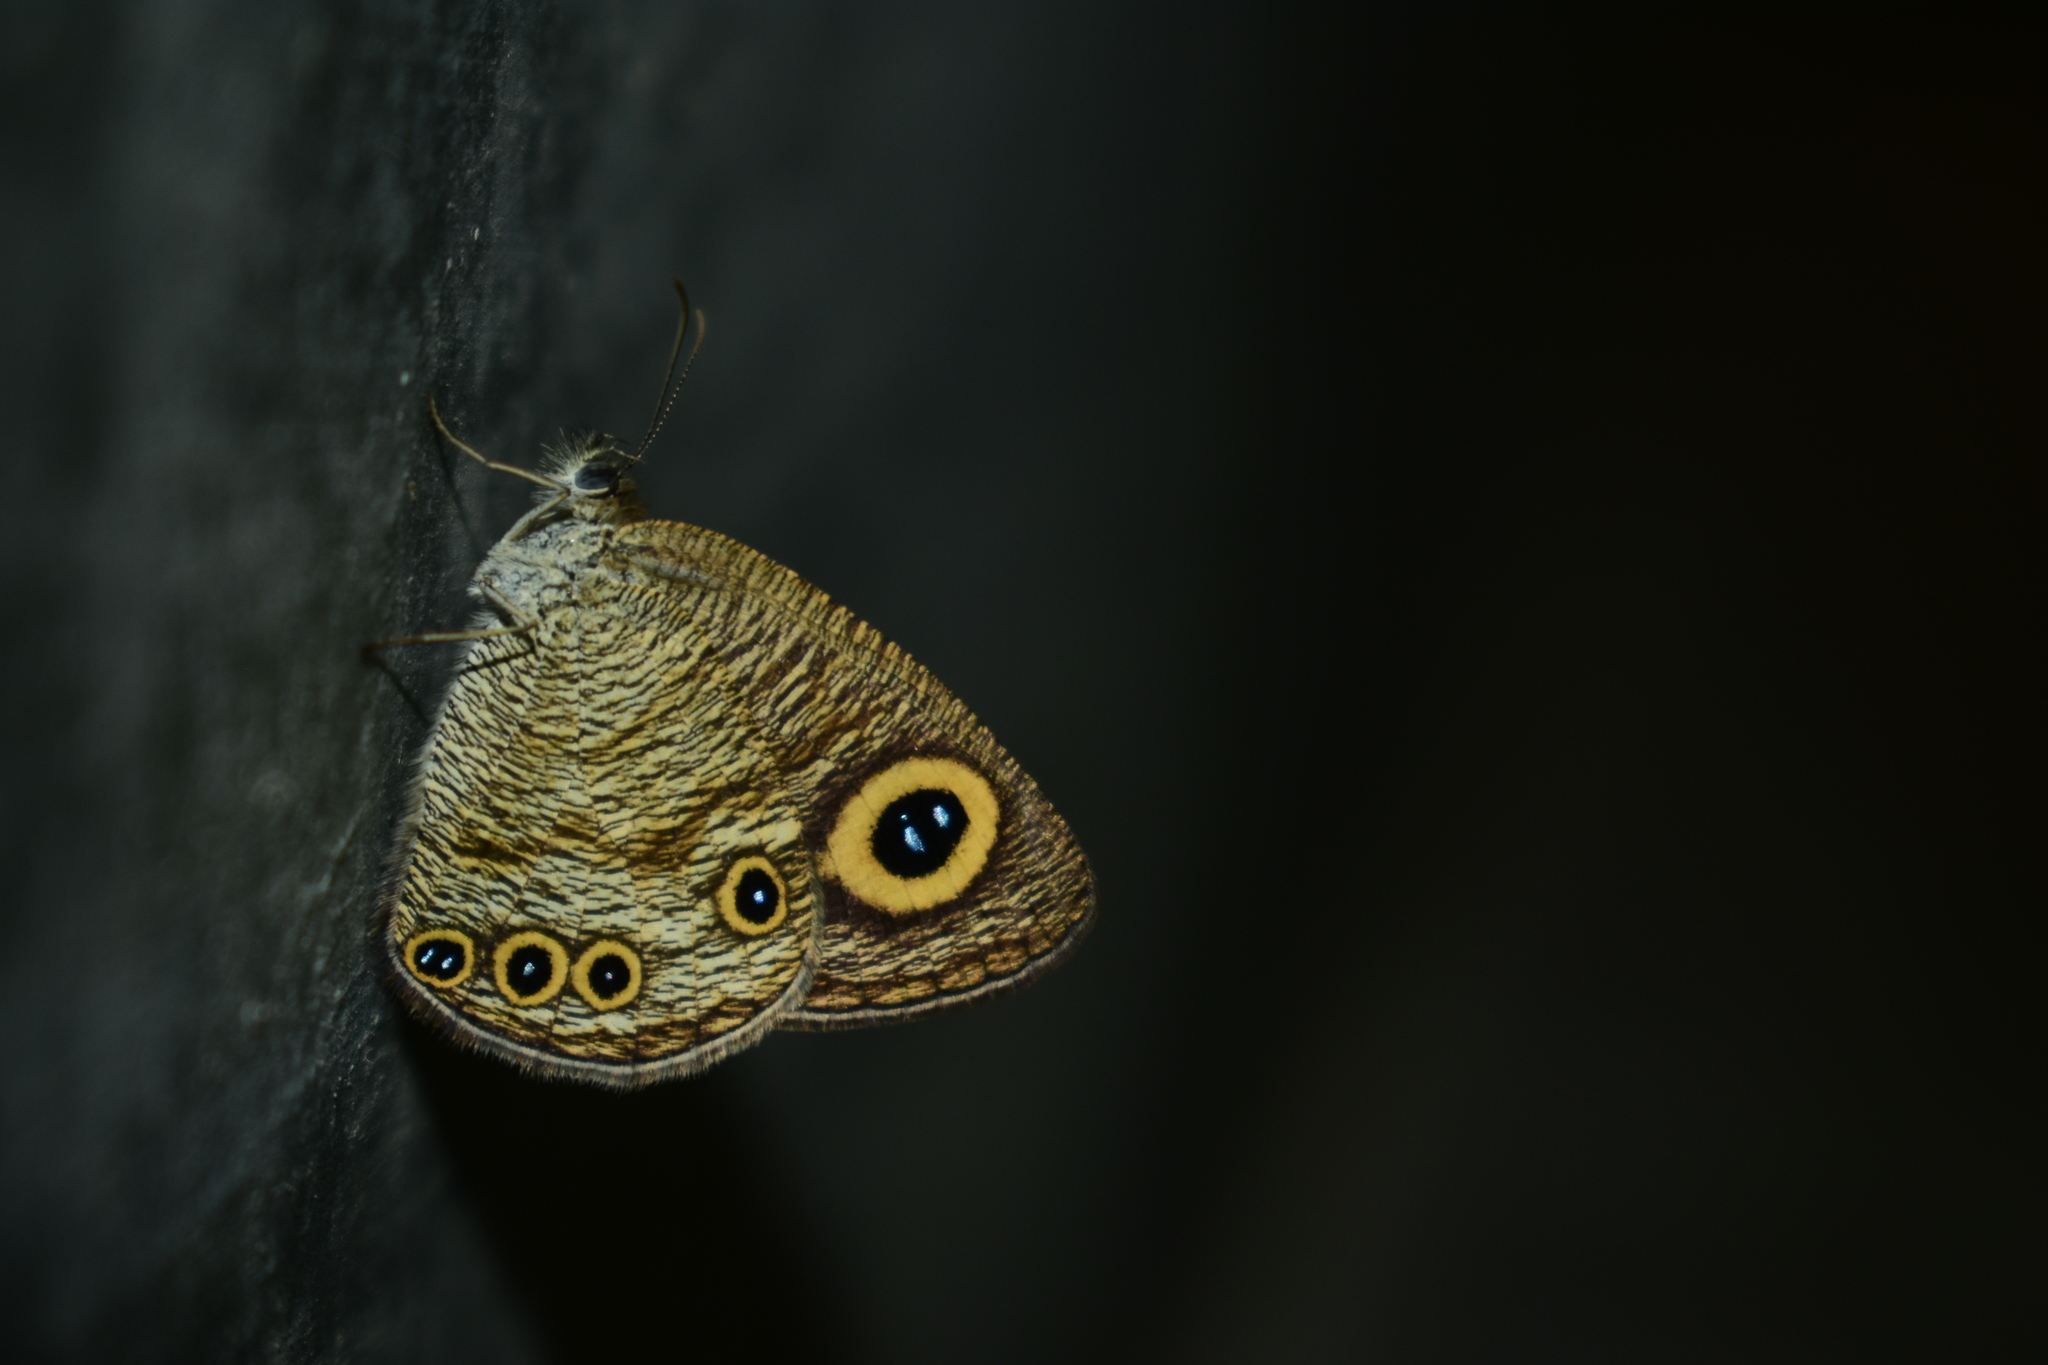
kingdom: Animalia
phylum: Arthropoda
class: Insecta
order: Lepidoptera
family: Nymphalidae
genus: Ypthima
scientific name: Ypthima huebneri
